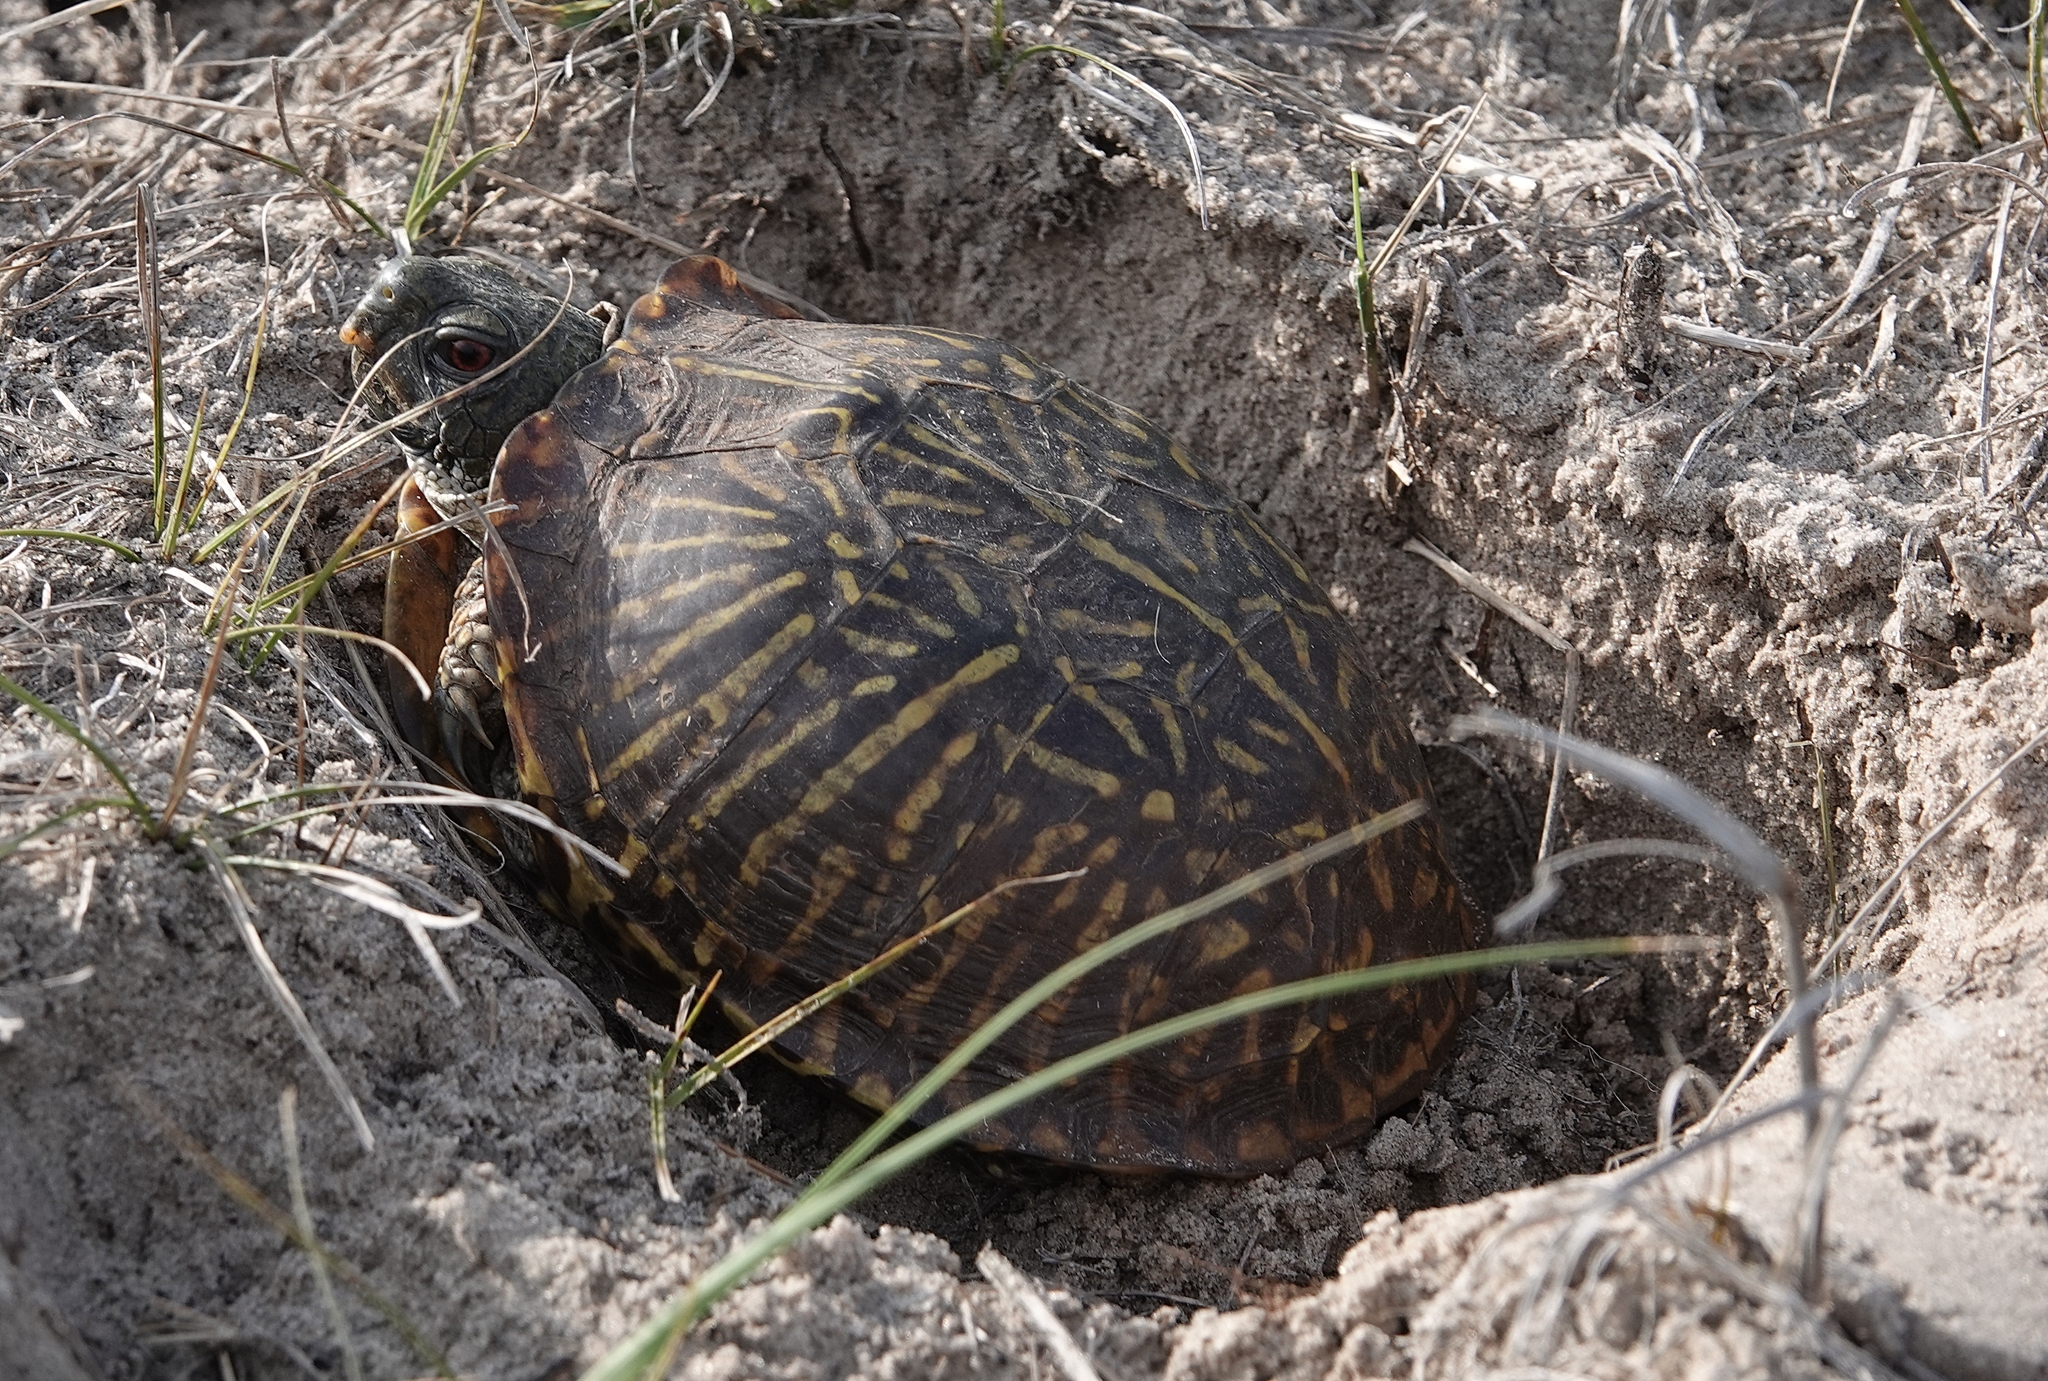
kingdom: Animalia
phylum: Chordata
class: Testudines
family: Emydidae
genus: Terrapene
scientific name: Terrapene ornata
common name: Western box turtle
